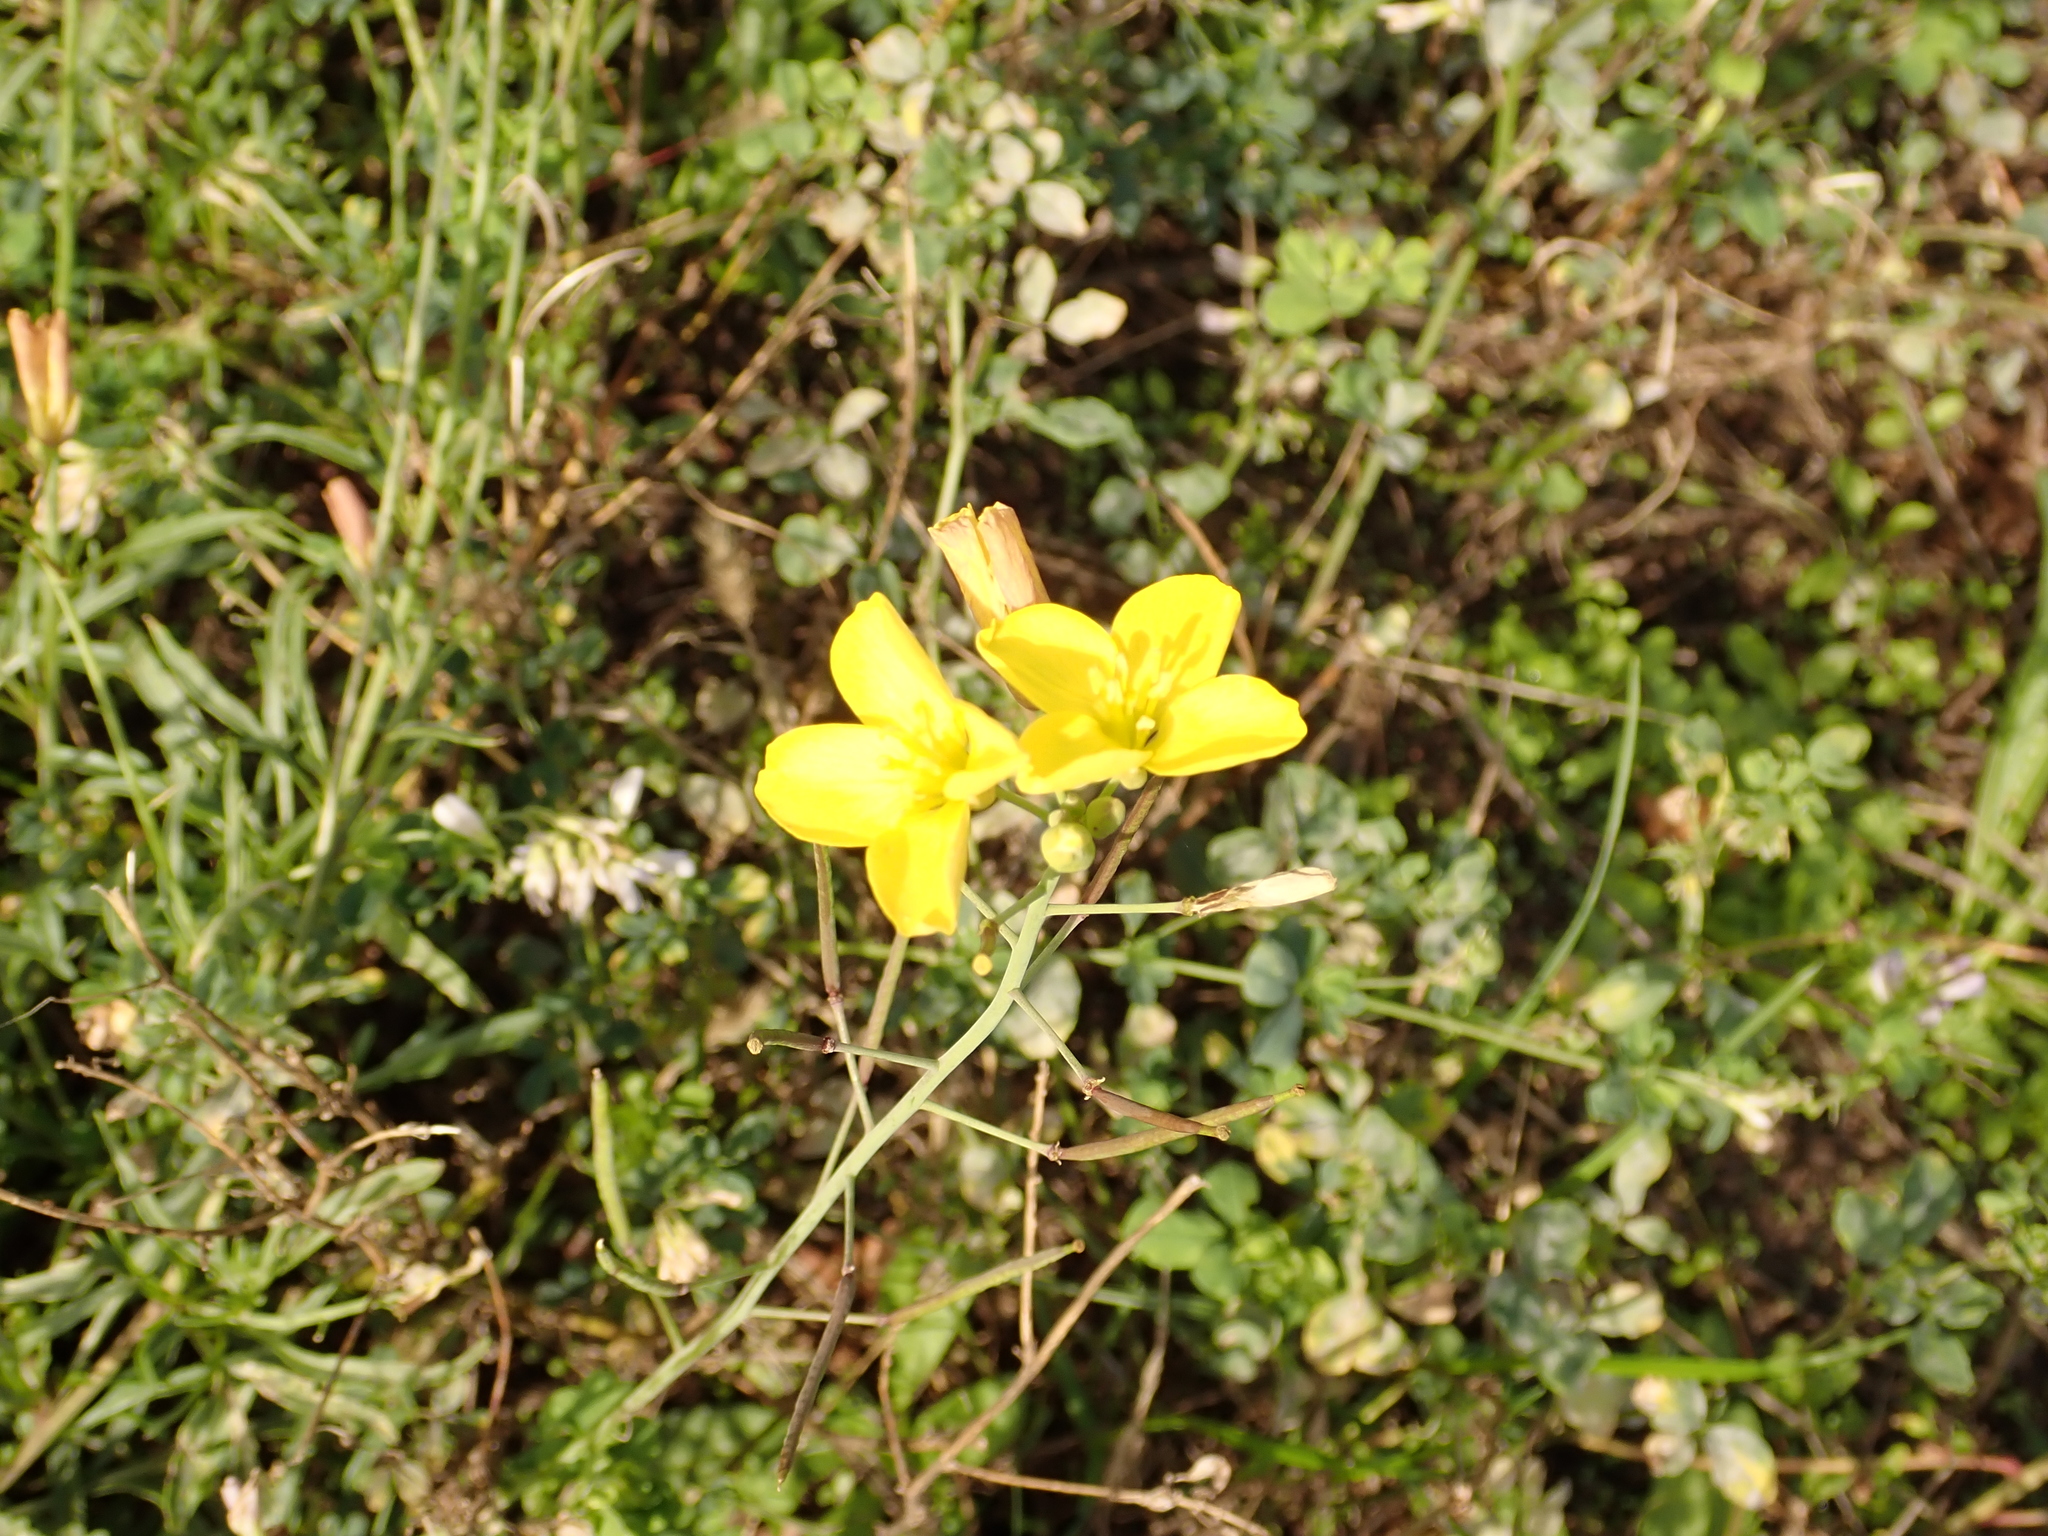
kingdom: Plantae
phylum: Tracheophyta
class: Magnoliopsida
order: Brassicales
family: Brassicaceae
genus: Diplotaxis
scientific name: Diplotaxis tenuifolia
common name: Perennial wall-rocket
